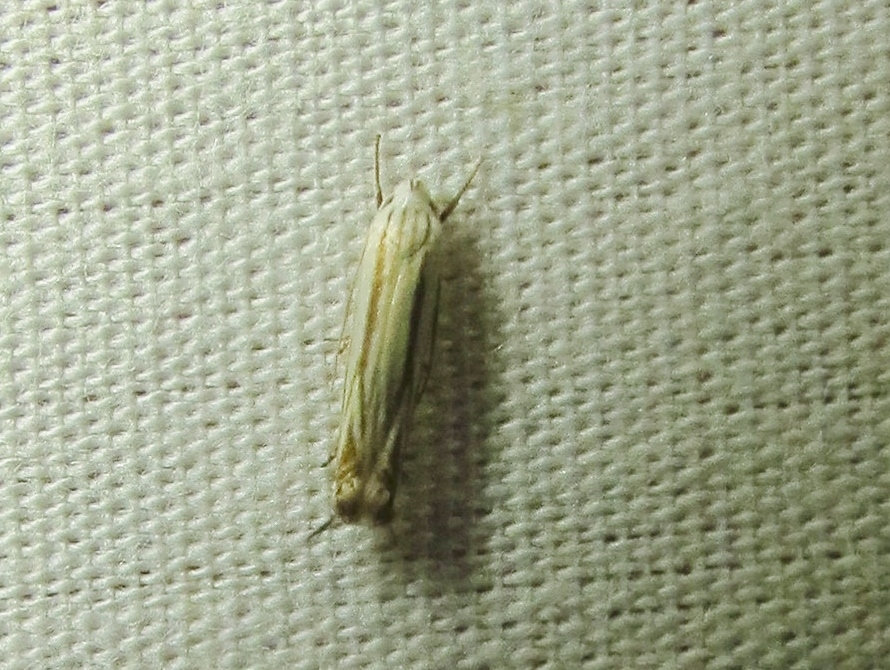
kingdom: Animalia
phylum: Arthropoda
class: Insecta
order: Lepidoptera
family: Gelechiidae
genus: Polyhymno
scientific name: Polyhymno luteostrigella
